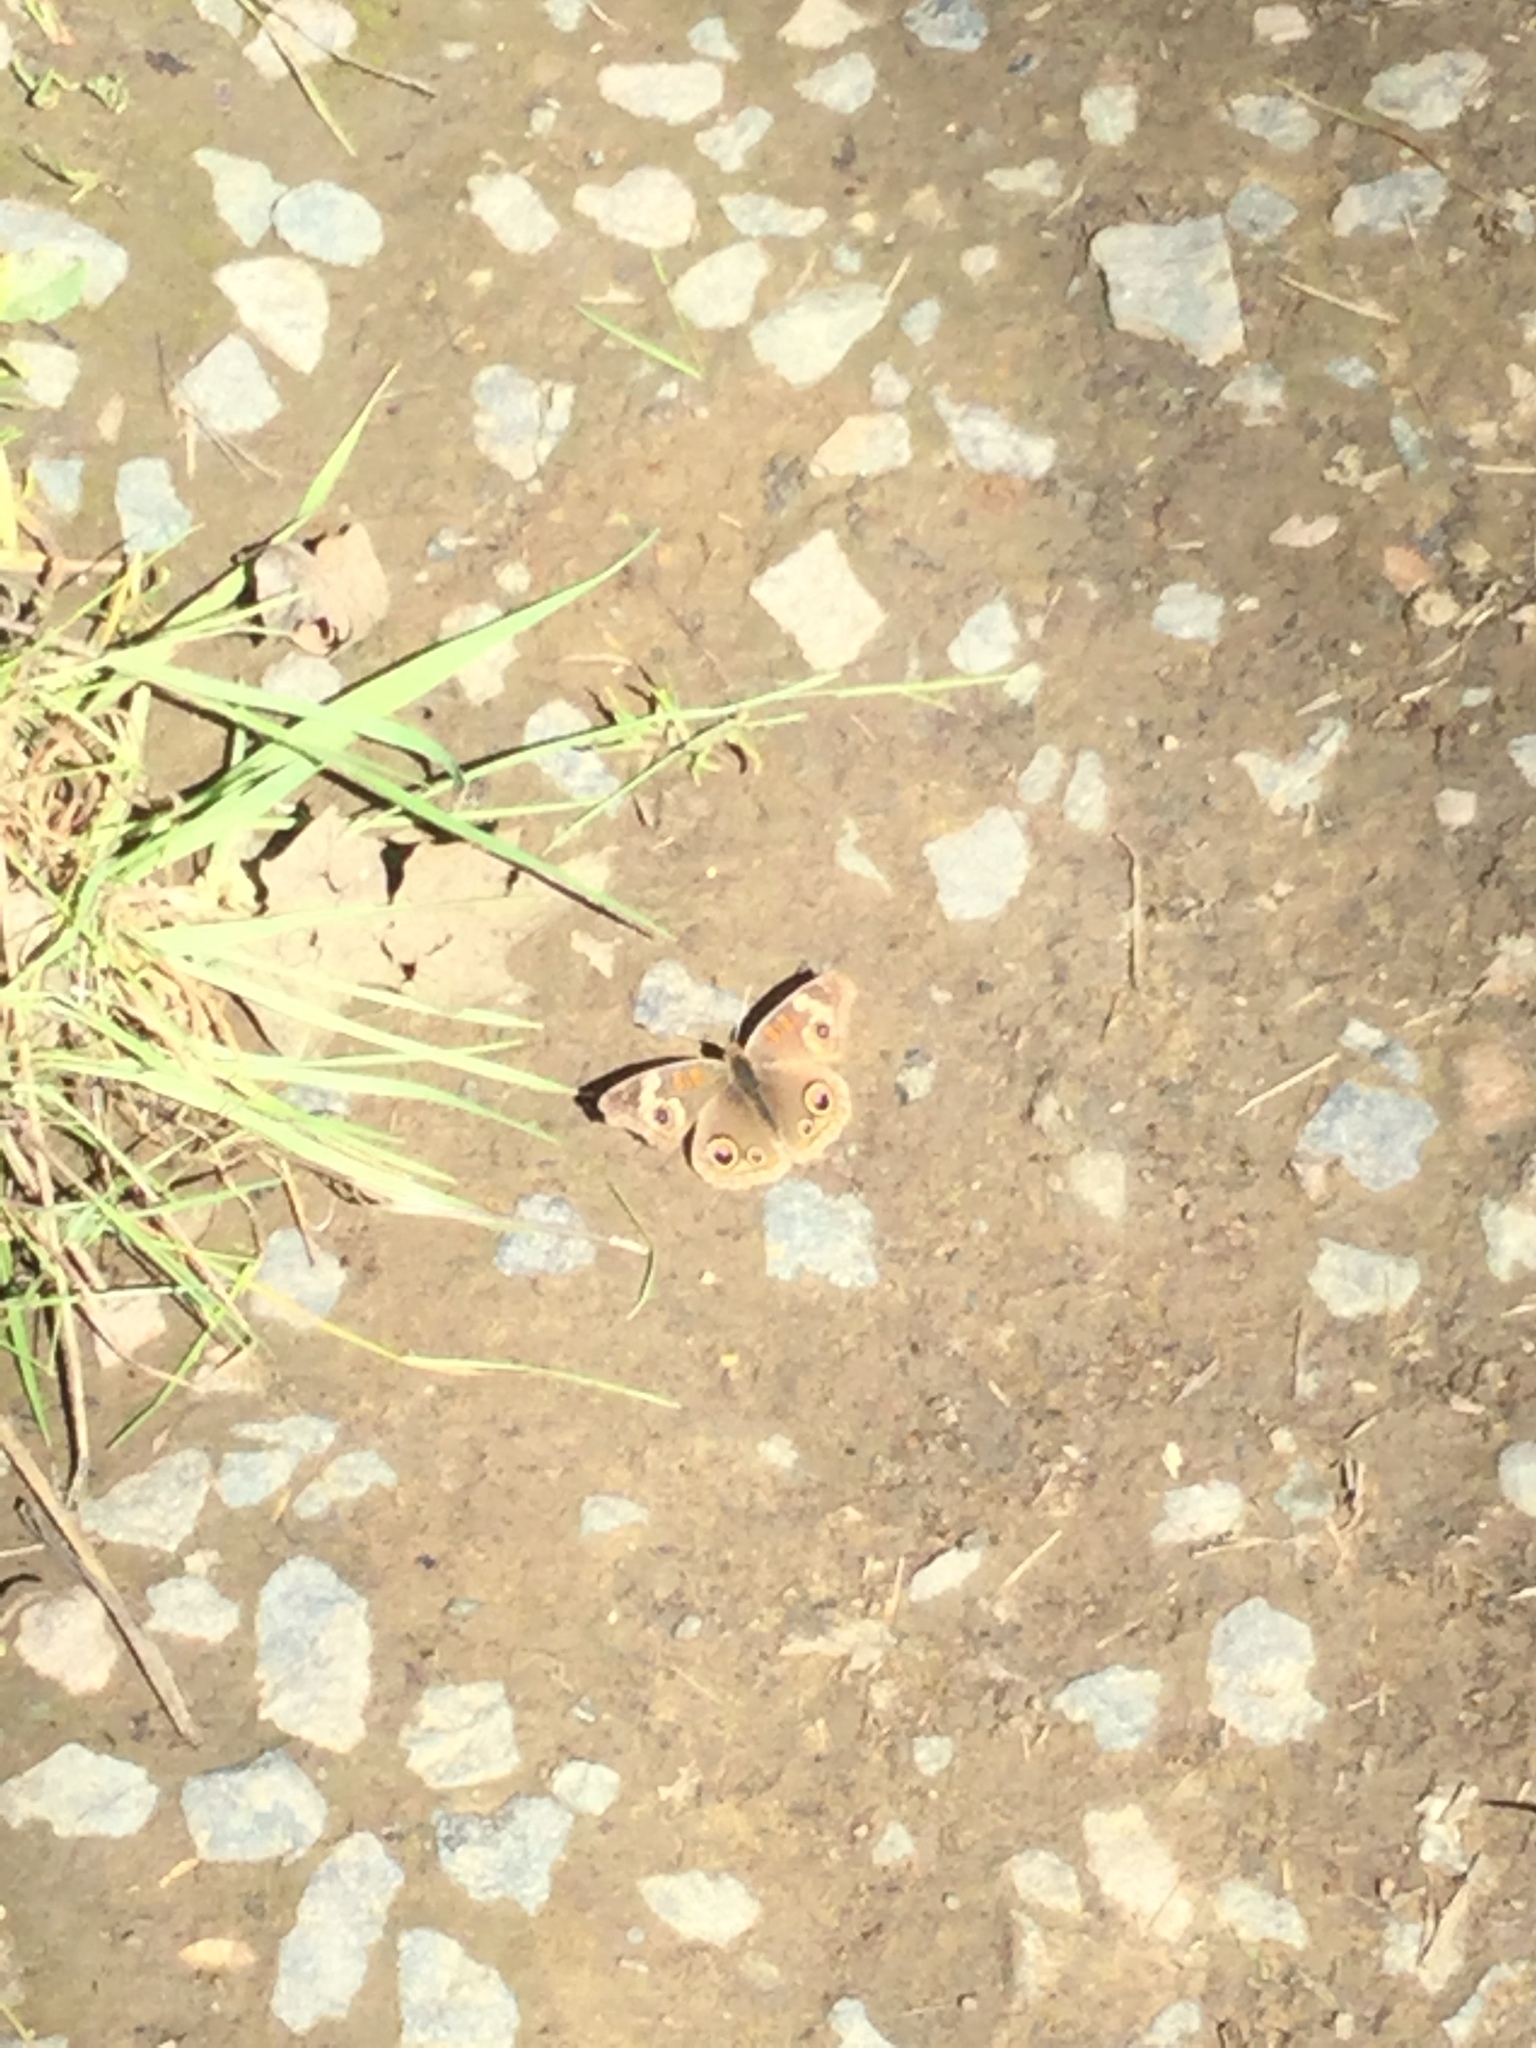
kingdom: Animalia
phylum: Arthropoda
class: Insecta
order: Lepidoptera
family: Nymphalidae
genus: Junonia
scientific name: Junonia grisea
